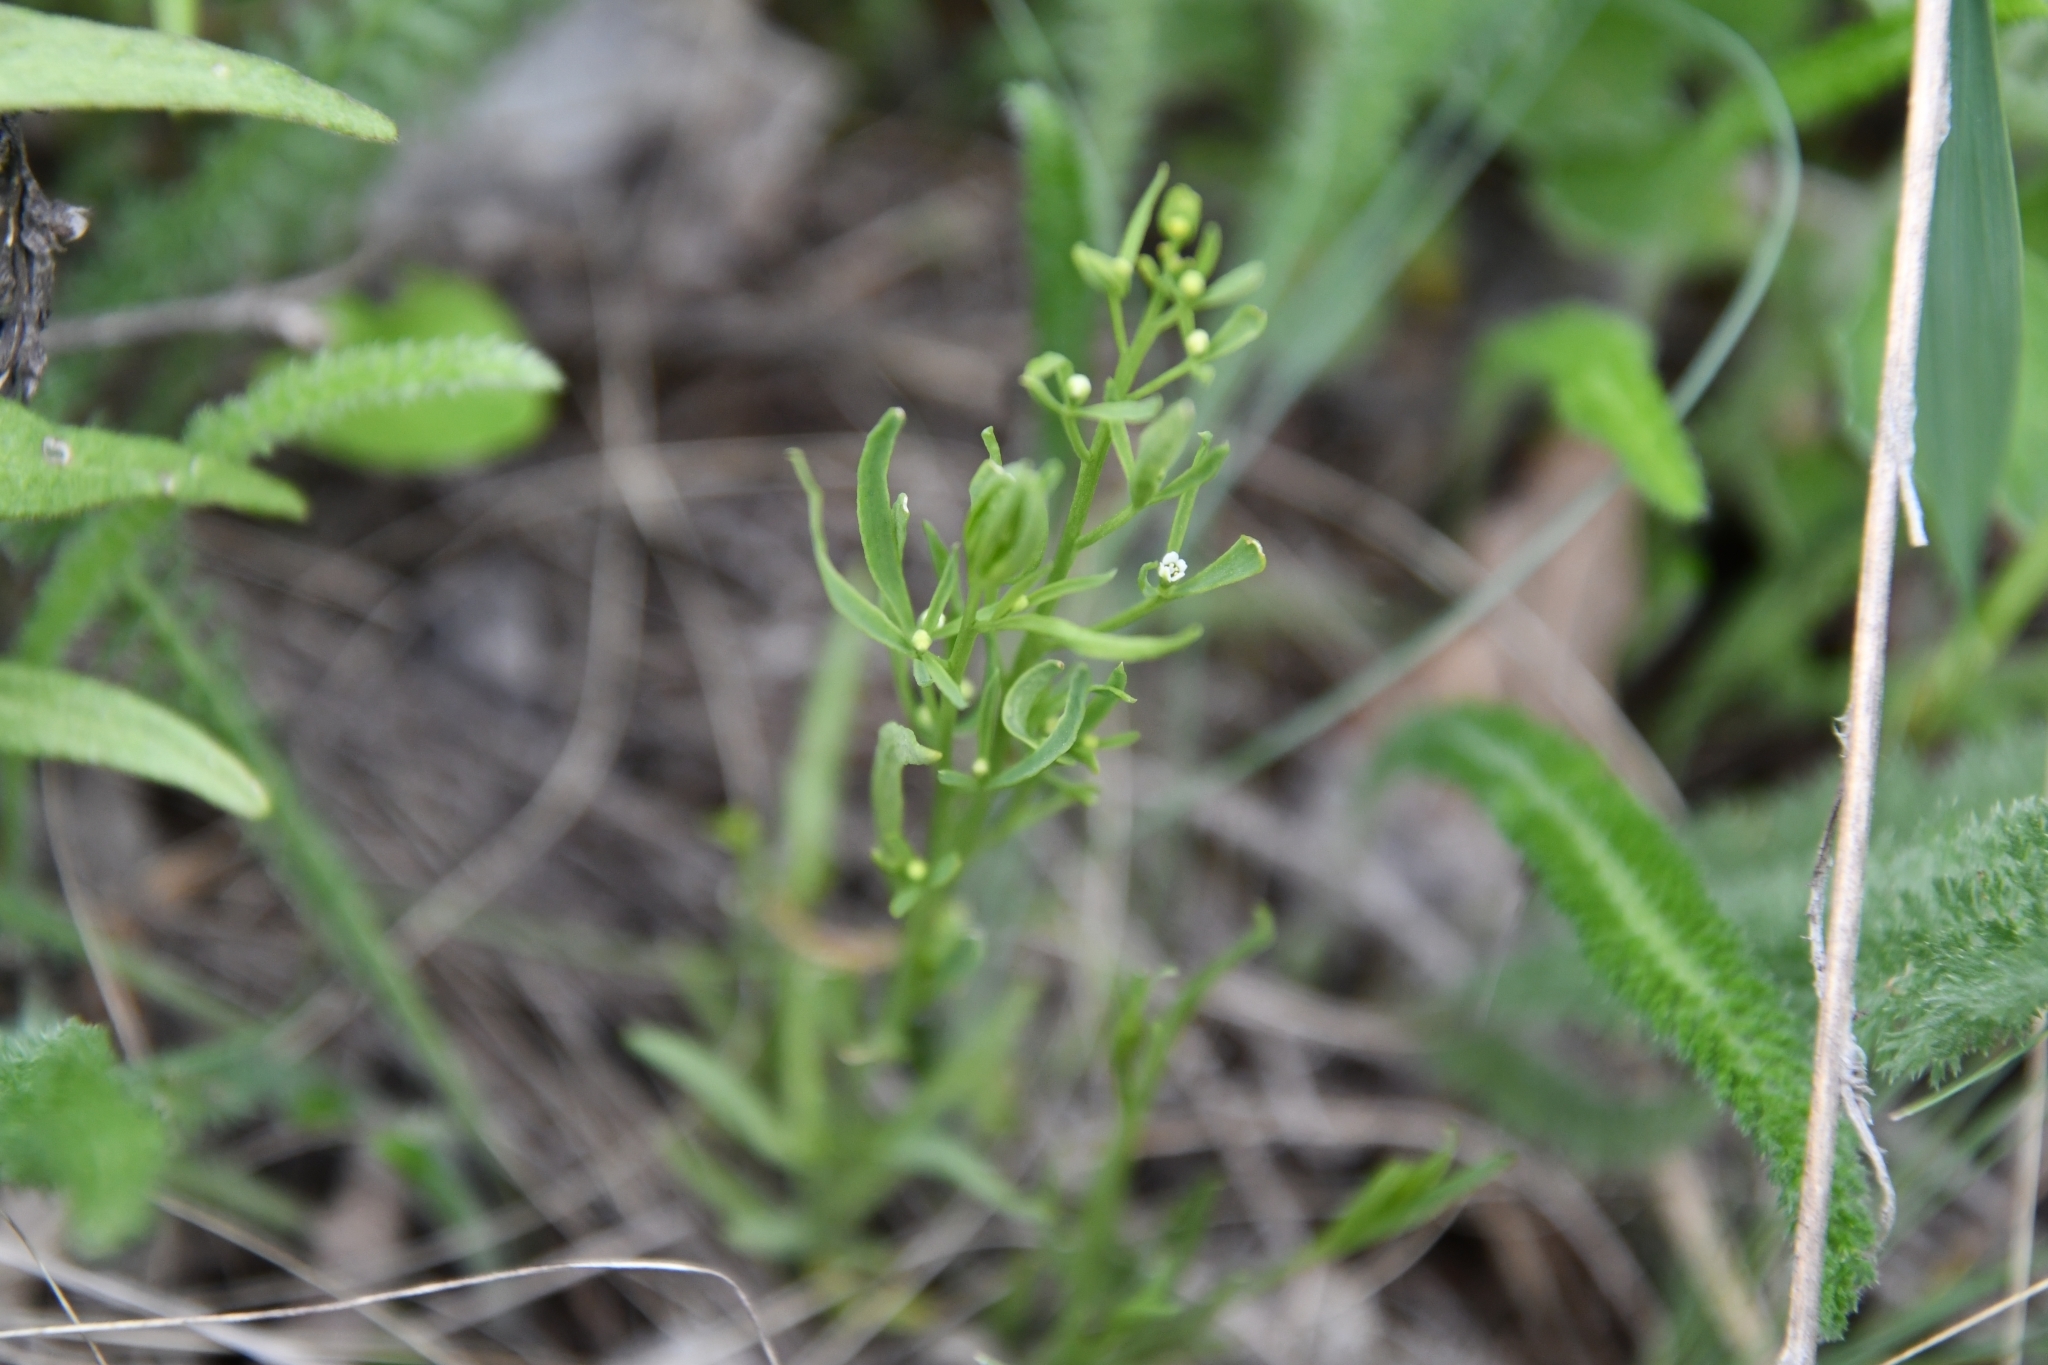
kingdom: Plantae
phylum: Tracheophyta
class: Magnoliopsida
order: Santalales
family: Thesiaceae
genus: Thesium
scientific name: Thesium ramosum
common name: Field thesium
